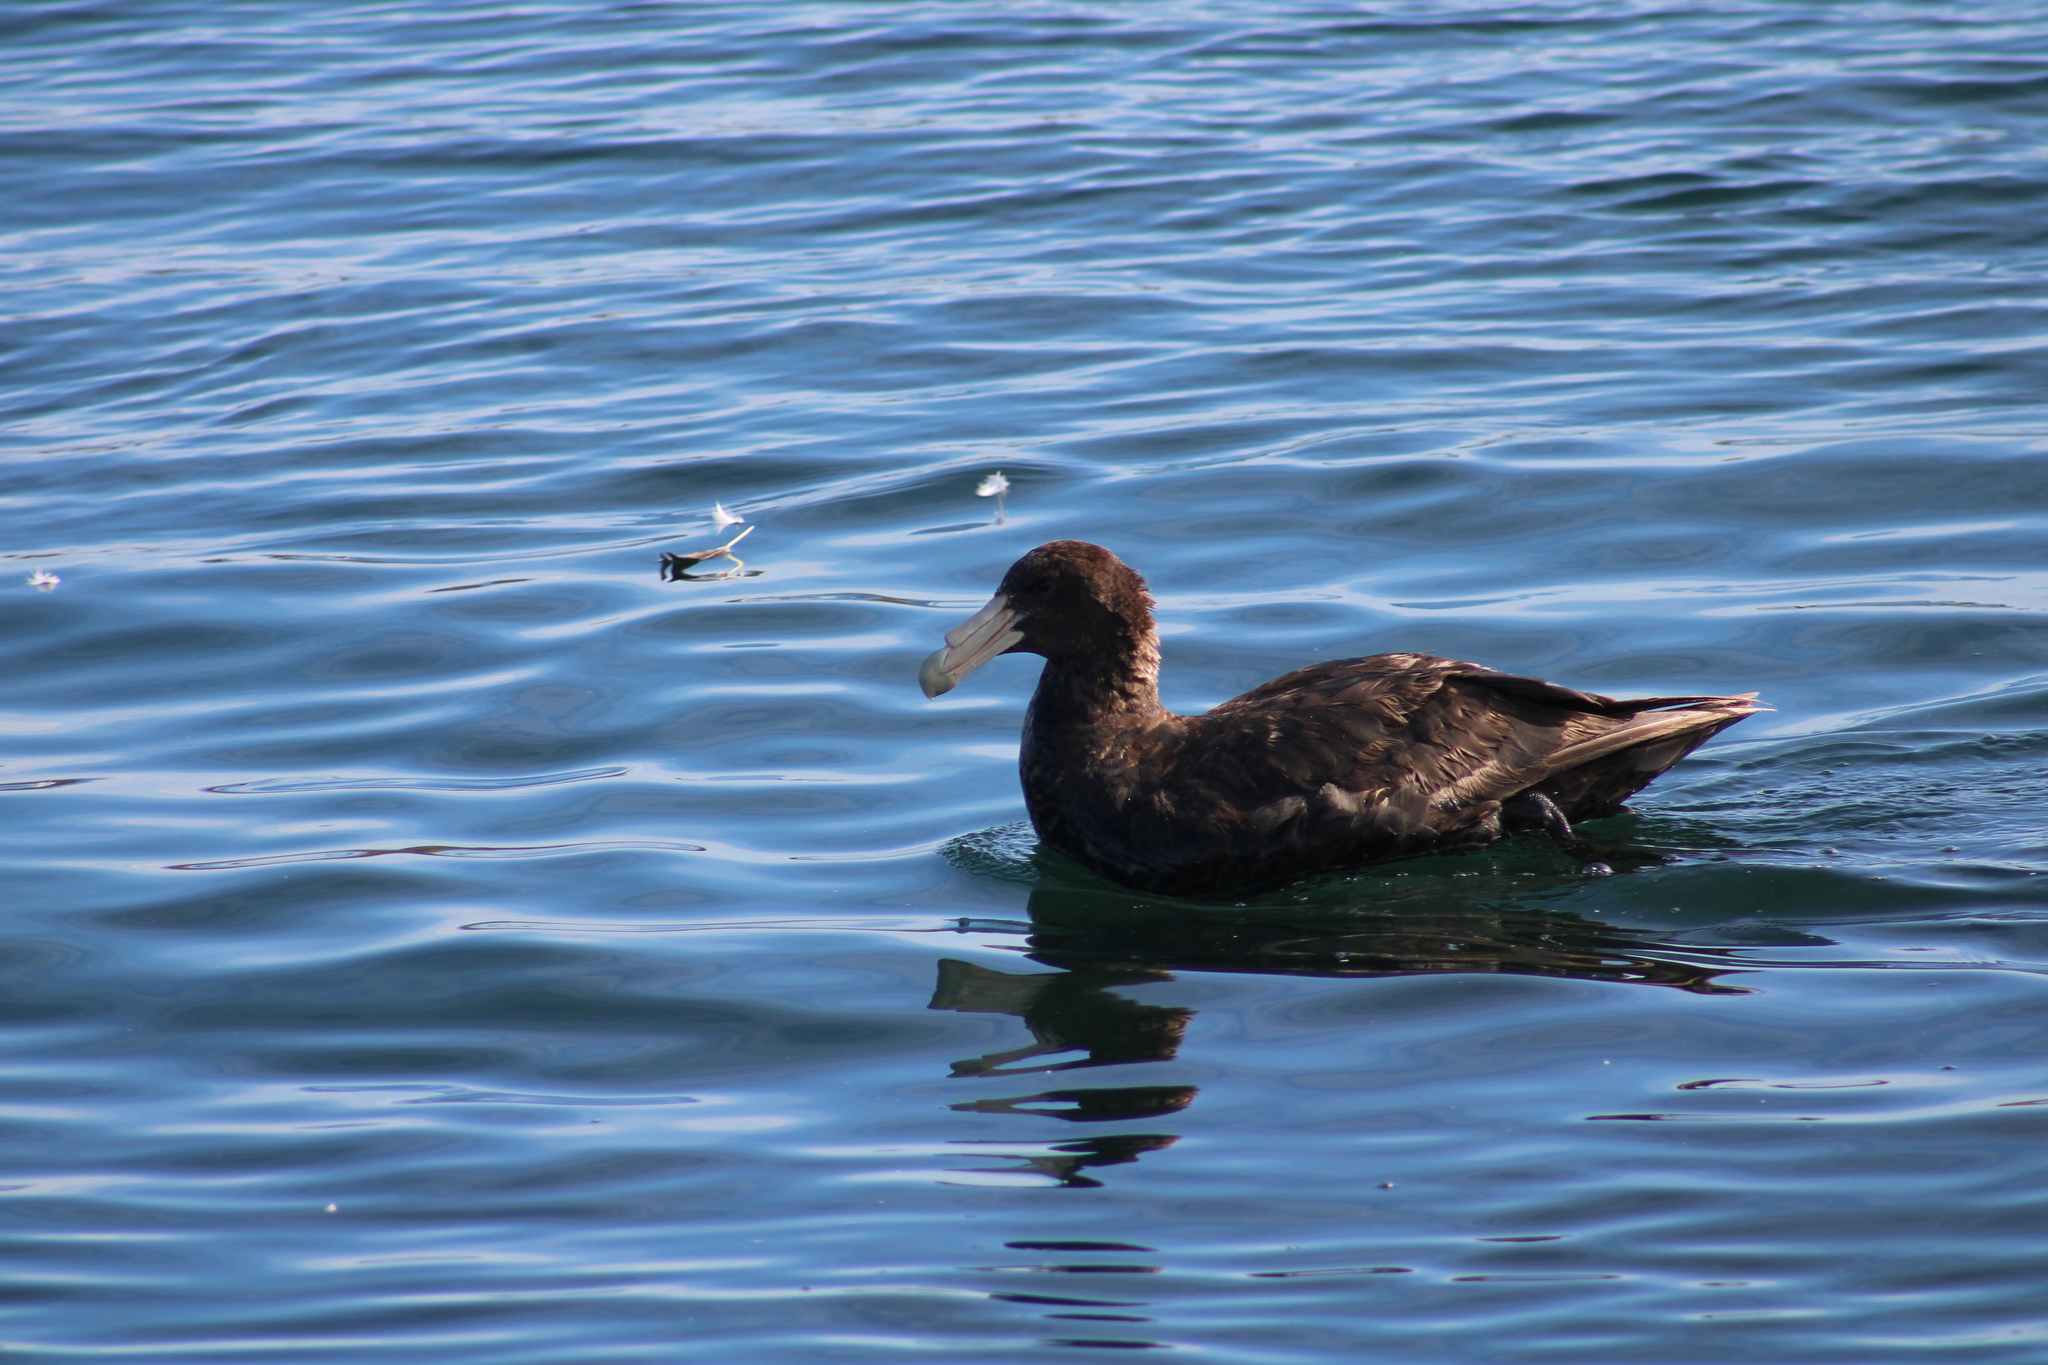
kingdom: Animalia
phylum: Chordata
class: Aves
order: Procellariiformes
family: Procellariidae
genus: Macronectes
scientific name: Macronectes giganteus
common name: Southern giant petrel
